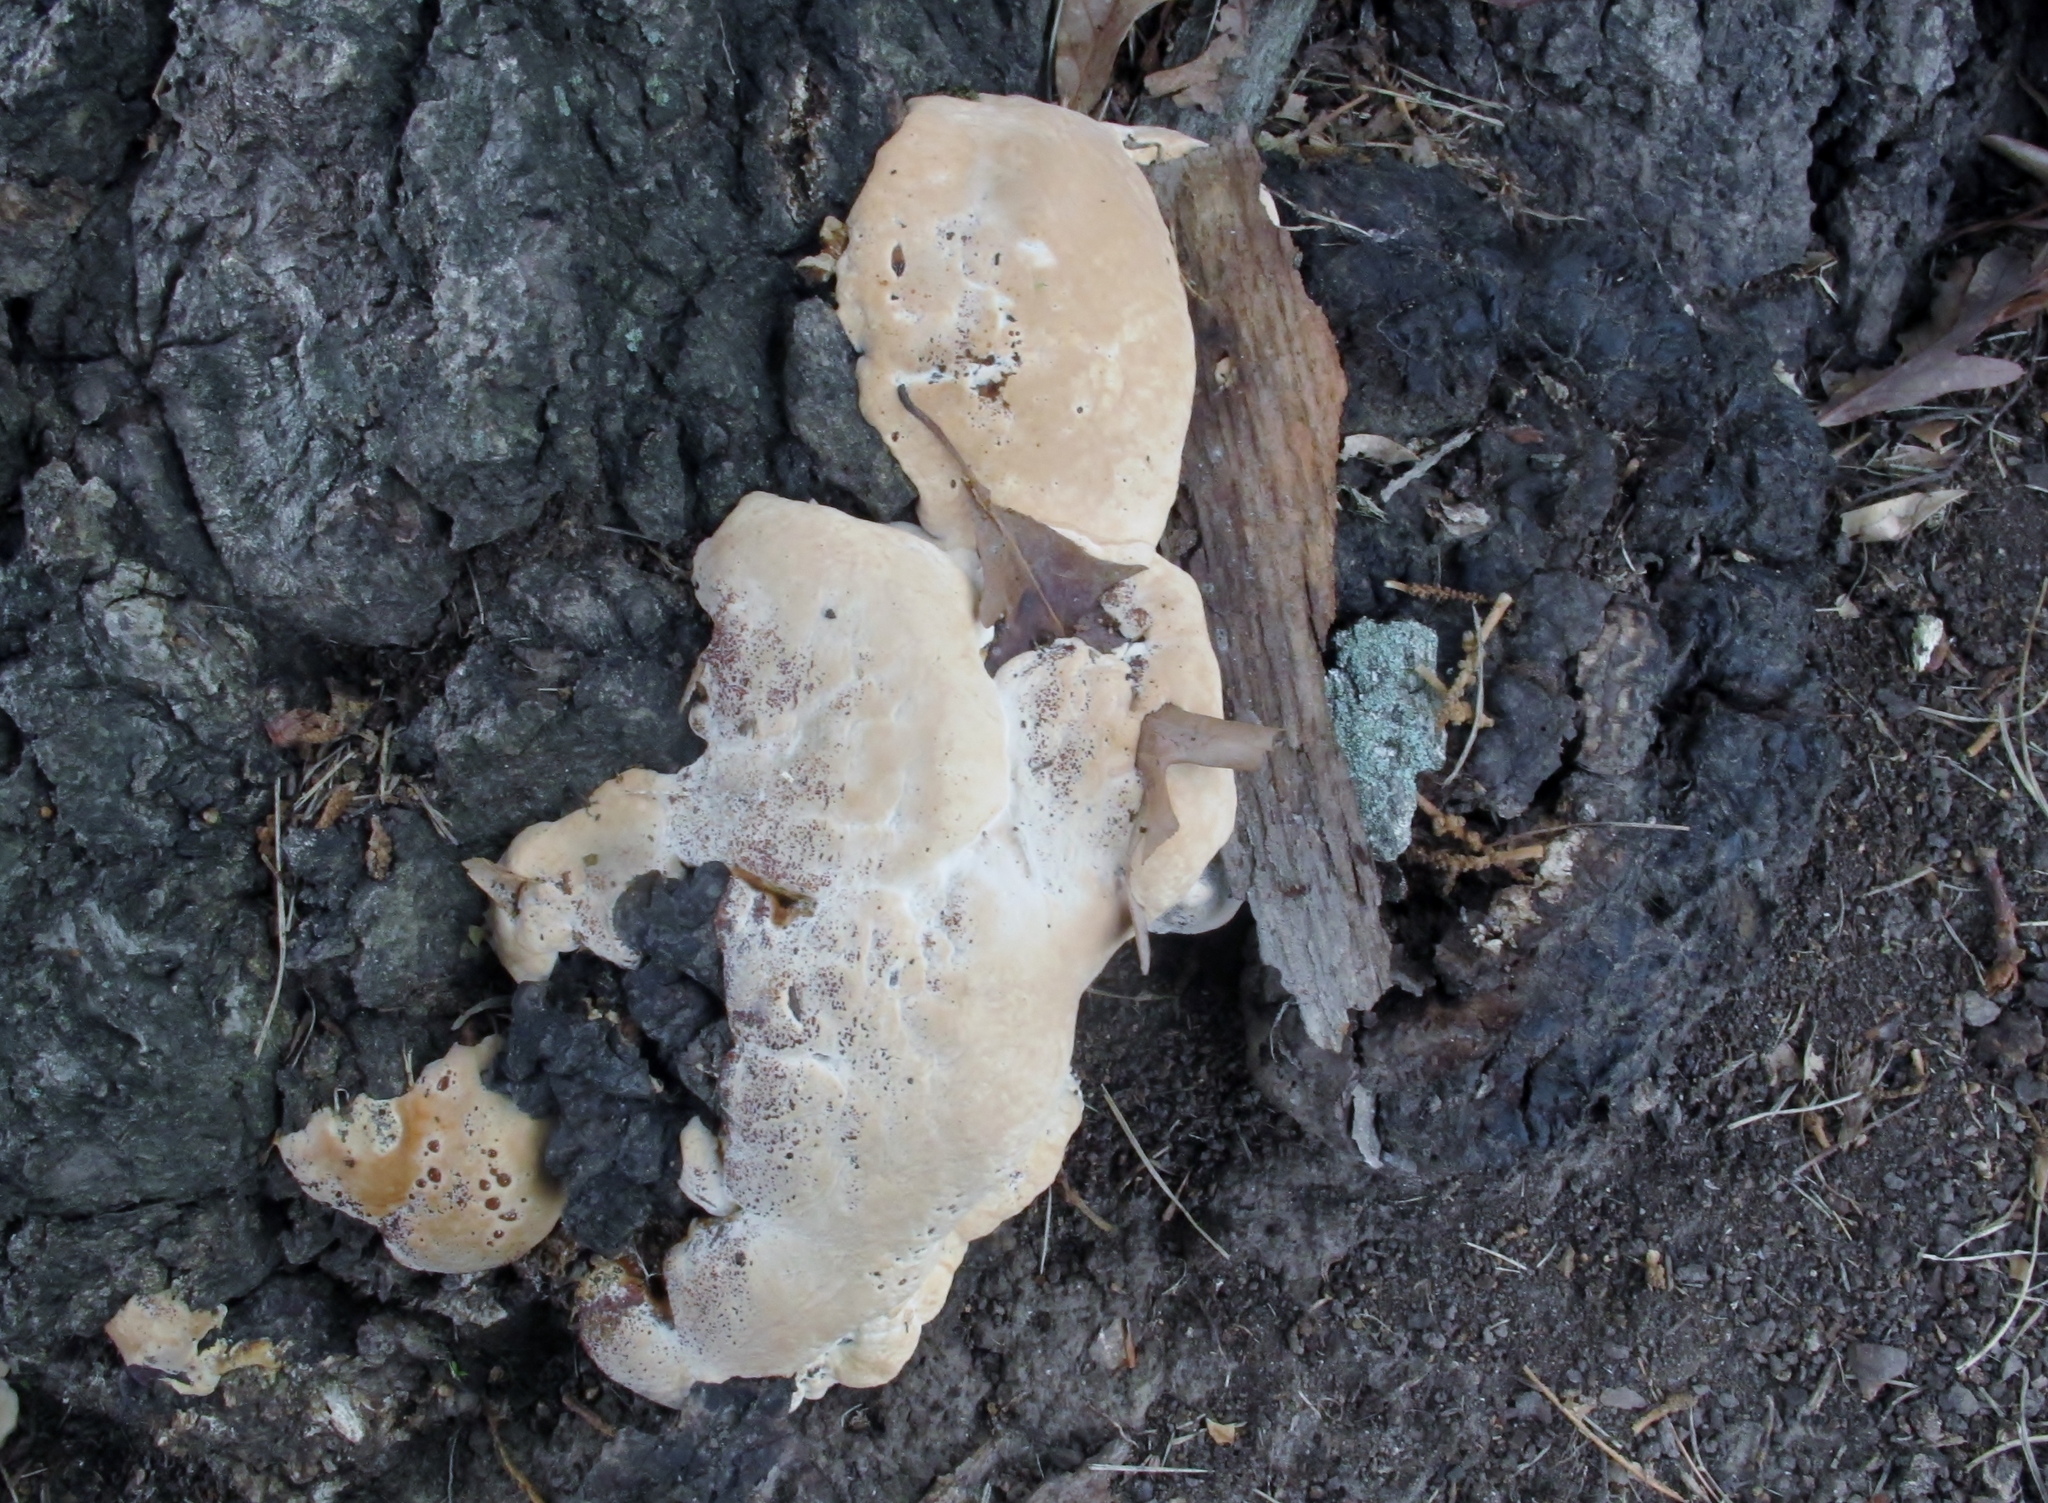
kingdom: Fungi
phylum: Basidiomycota
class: Agaricomycetes
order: Hymenochaetales
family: Hymenochaetaceae
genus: Pseudoinonotus
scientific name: Pseudoinonotus dryadeus
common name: Oak bracket
